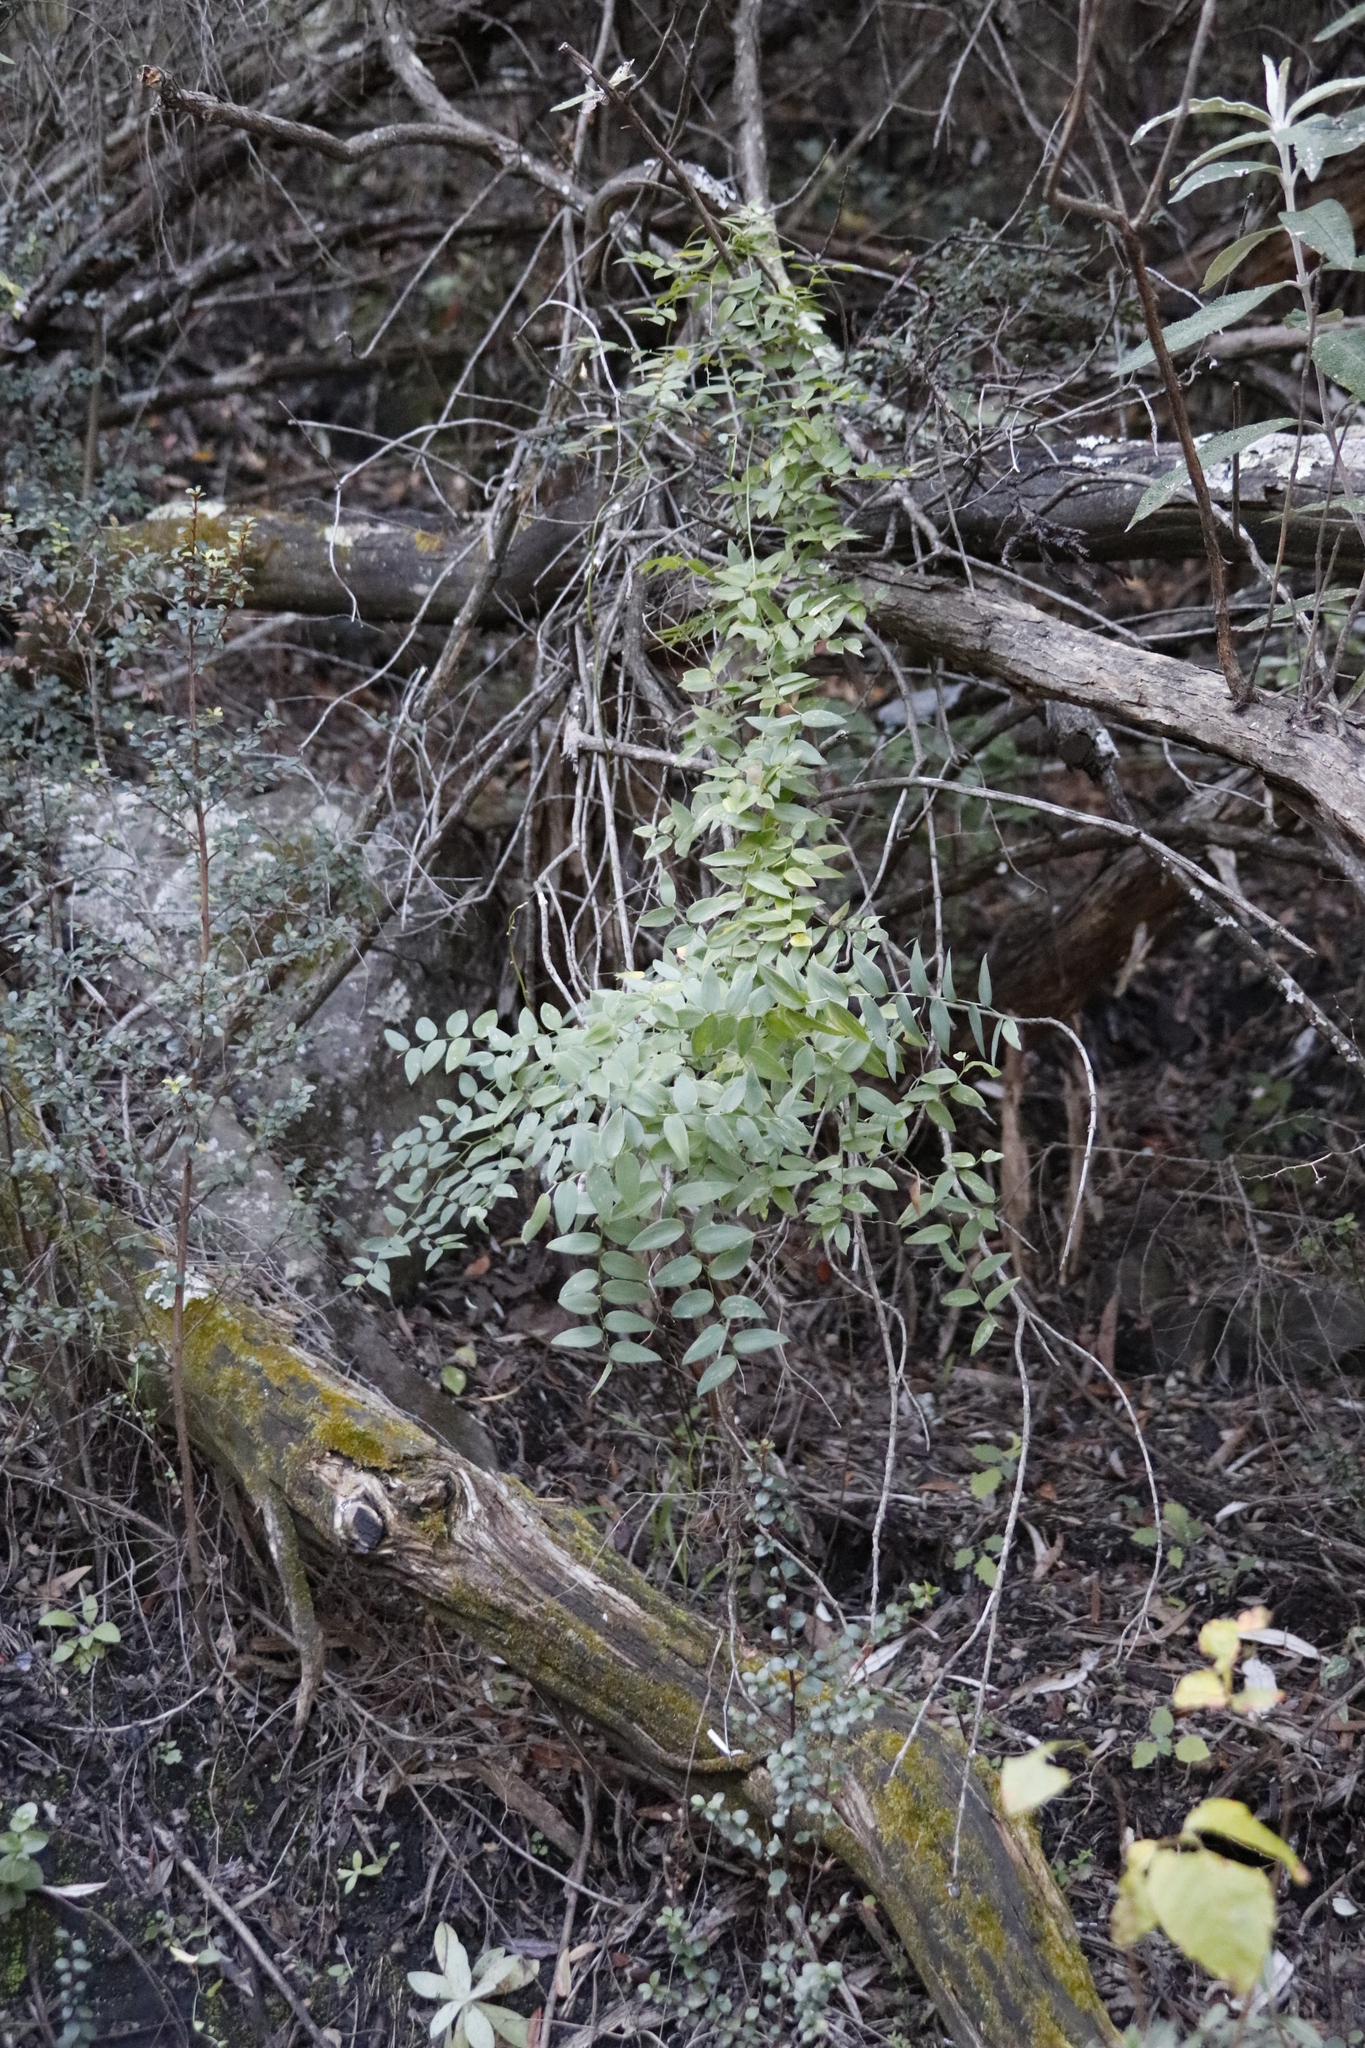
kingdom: Plantae
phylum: Tracheophyta
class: Liliopsida
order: Asparagales
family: Asparagaceae
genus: Asparagus
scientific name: Asparagus asparagoides
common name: African asparagus fern
